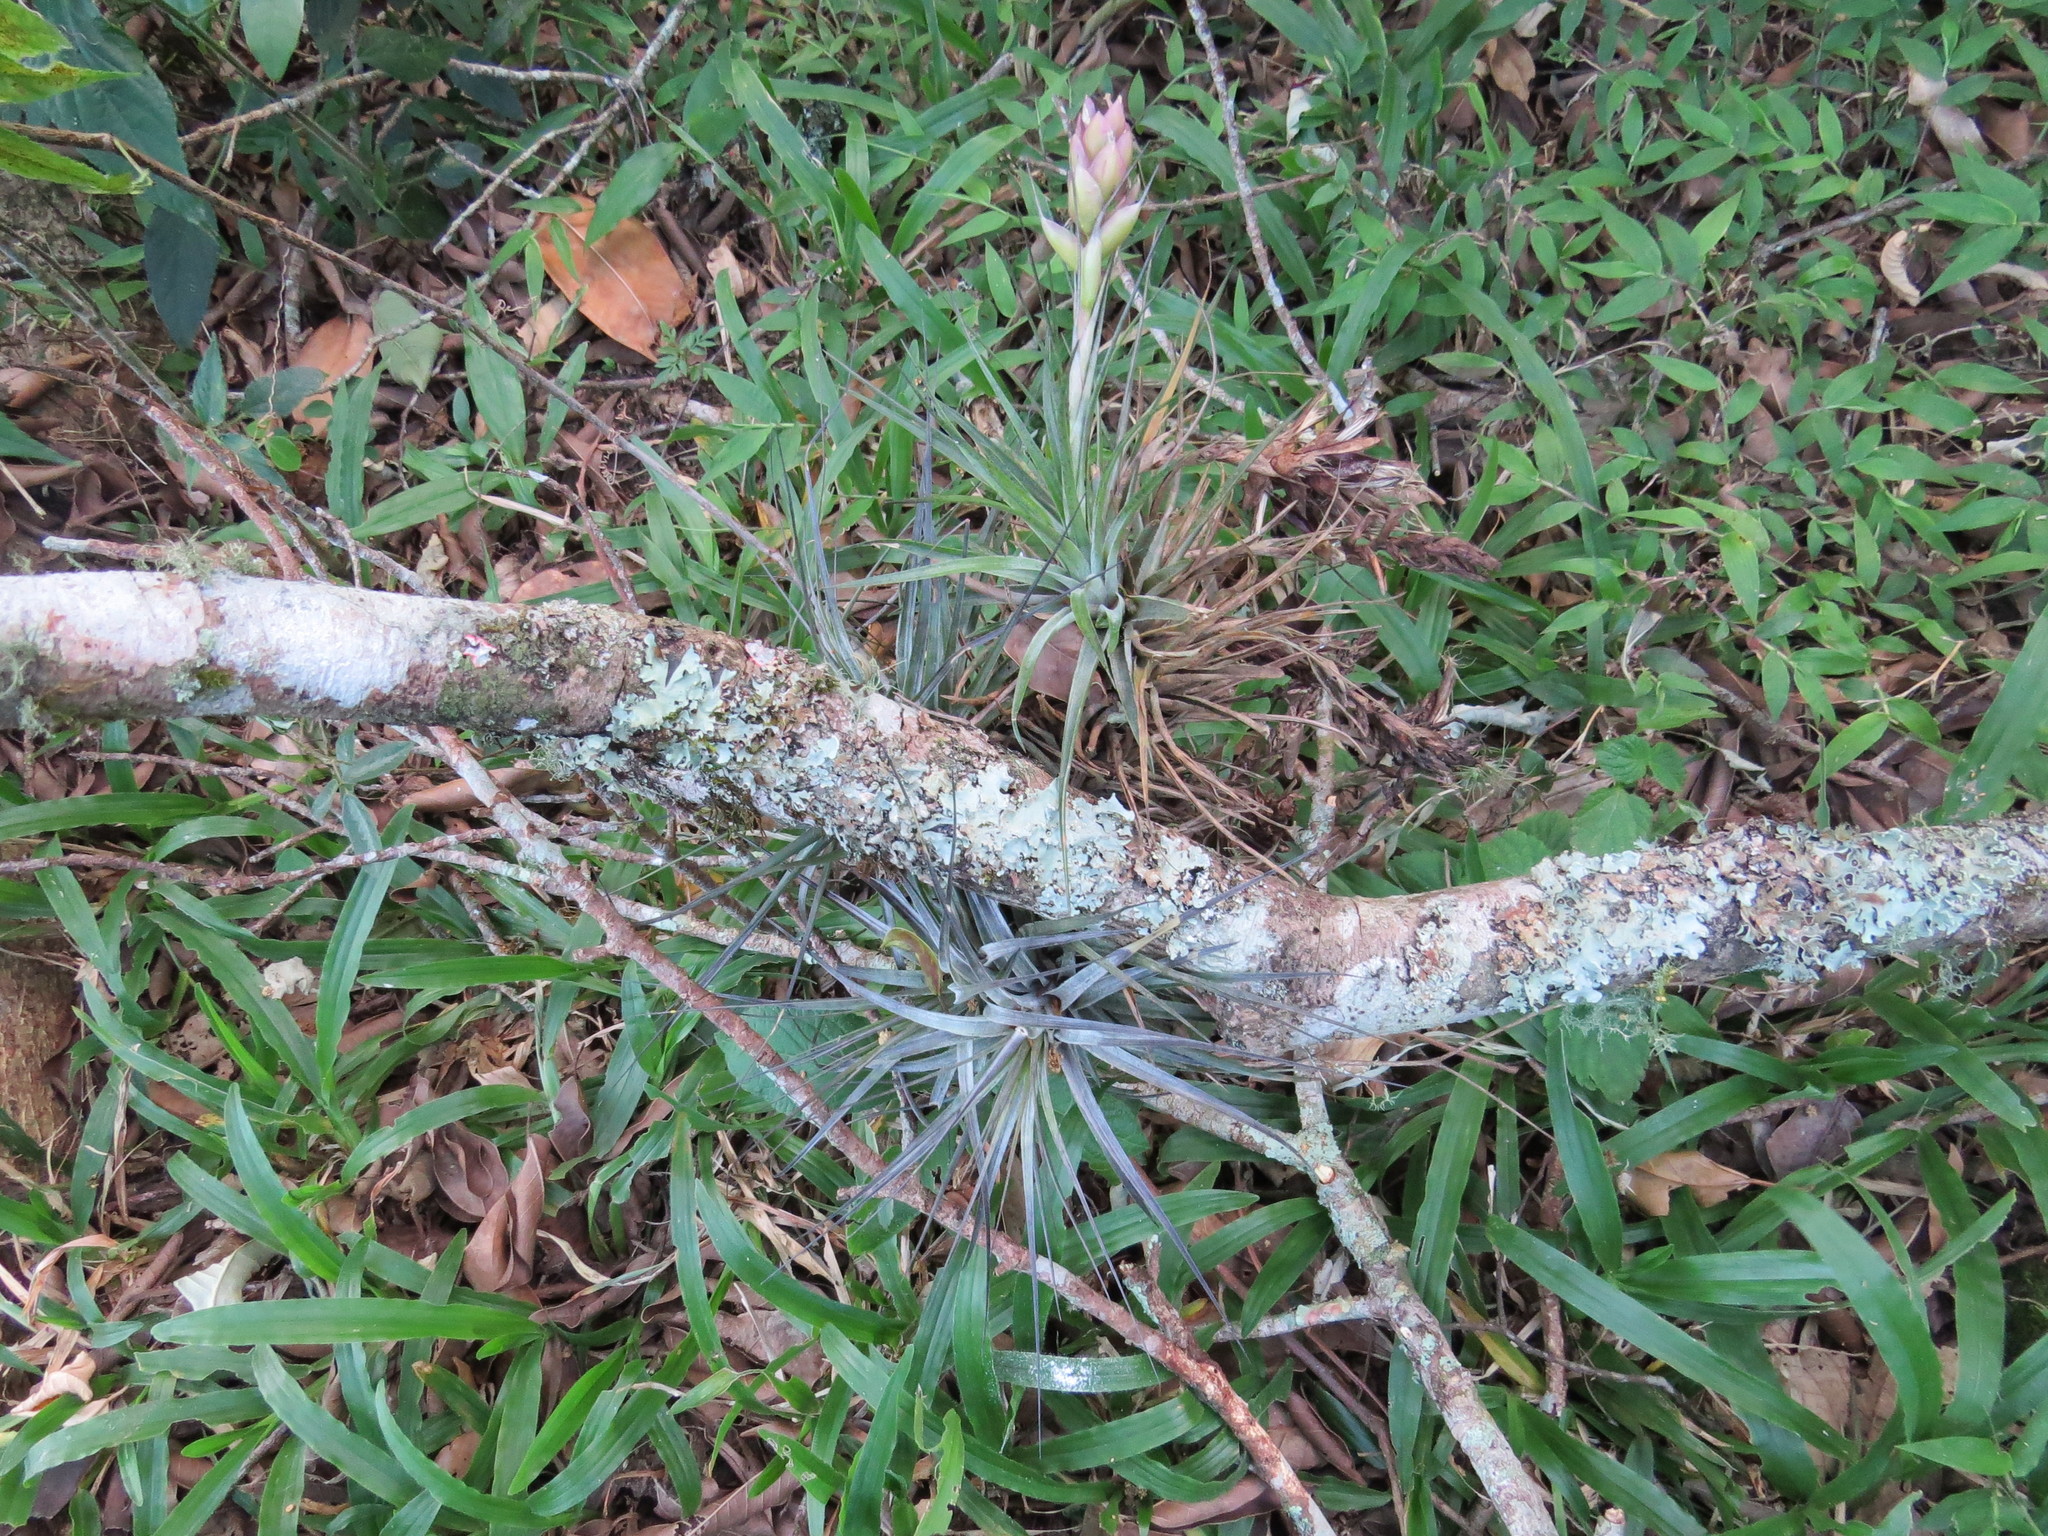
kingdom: Plantae
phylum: Tracheophyta
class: Liliopsida
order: Poales
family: Bromeliaceae
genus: Tillandsia
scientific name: Tillandsia stricta
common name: Airplant
